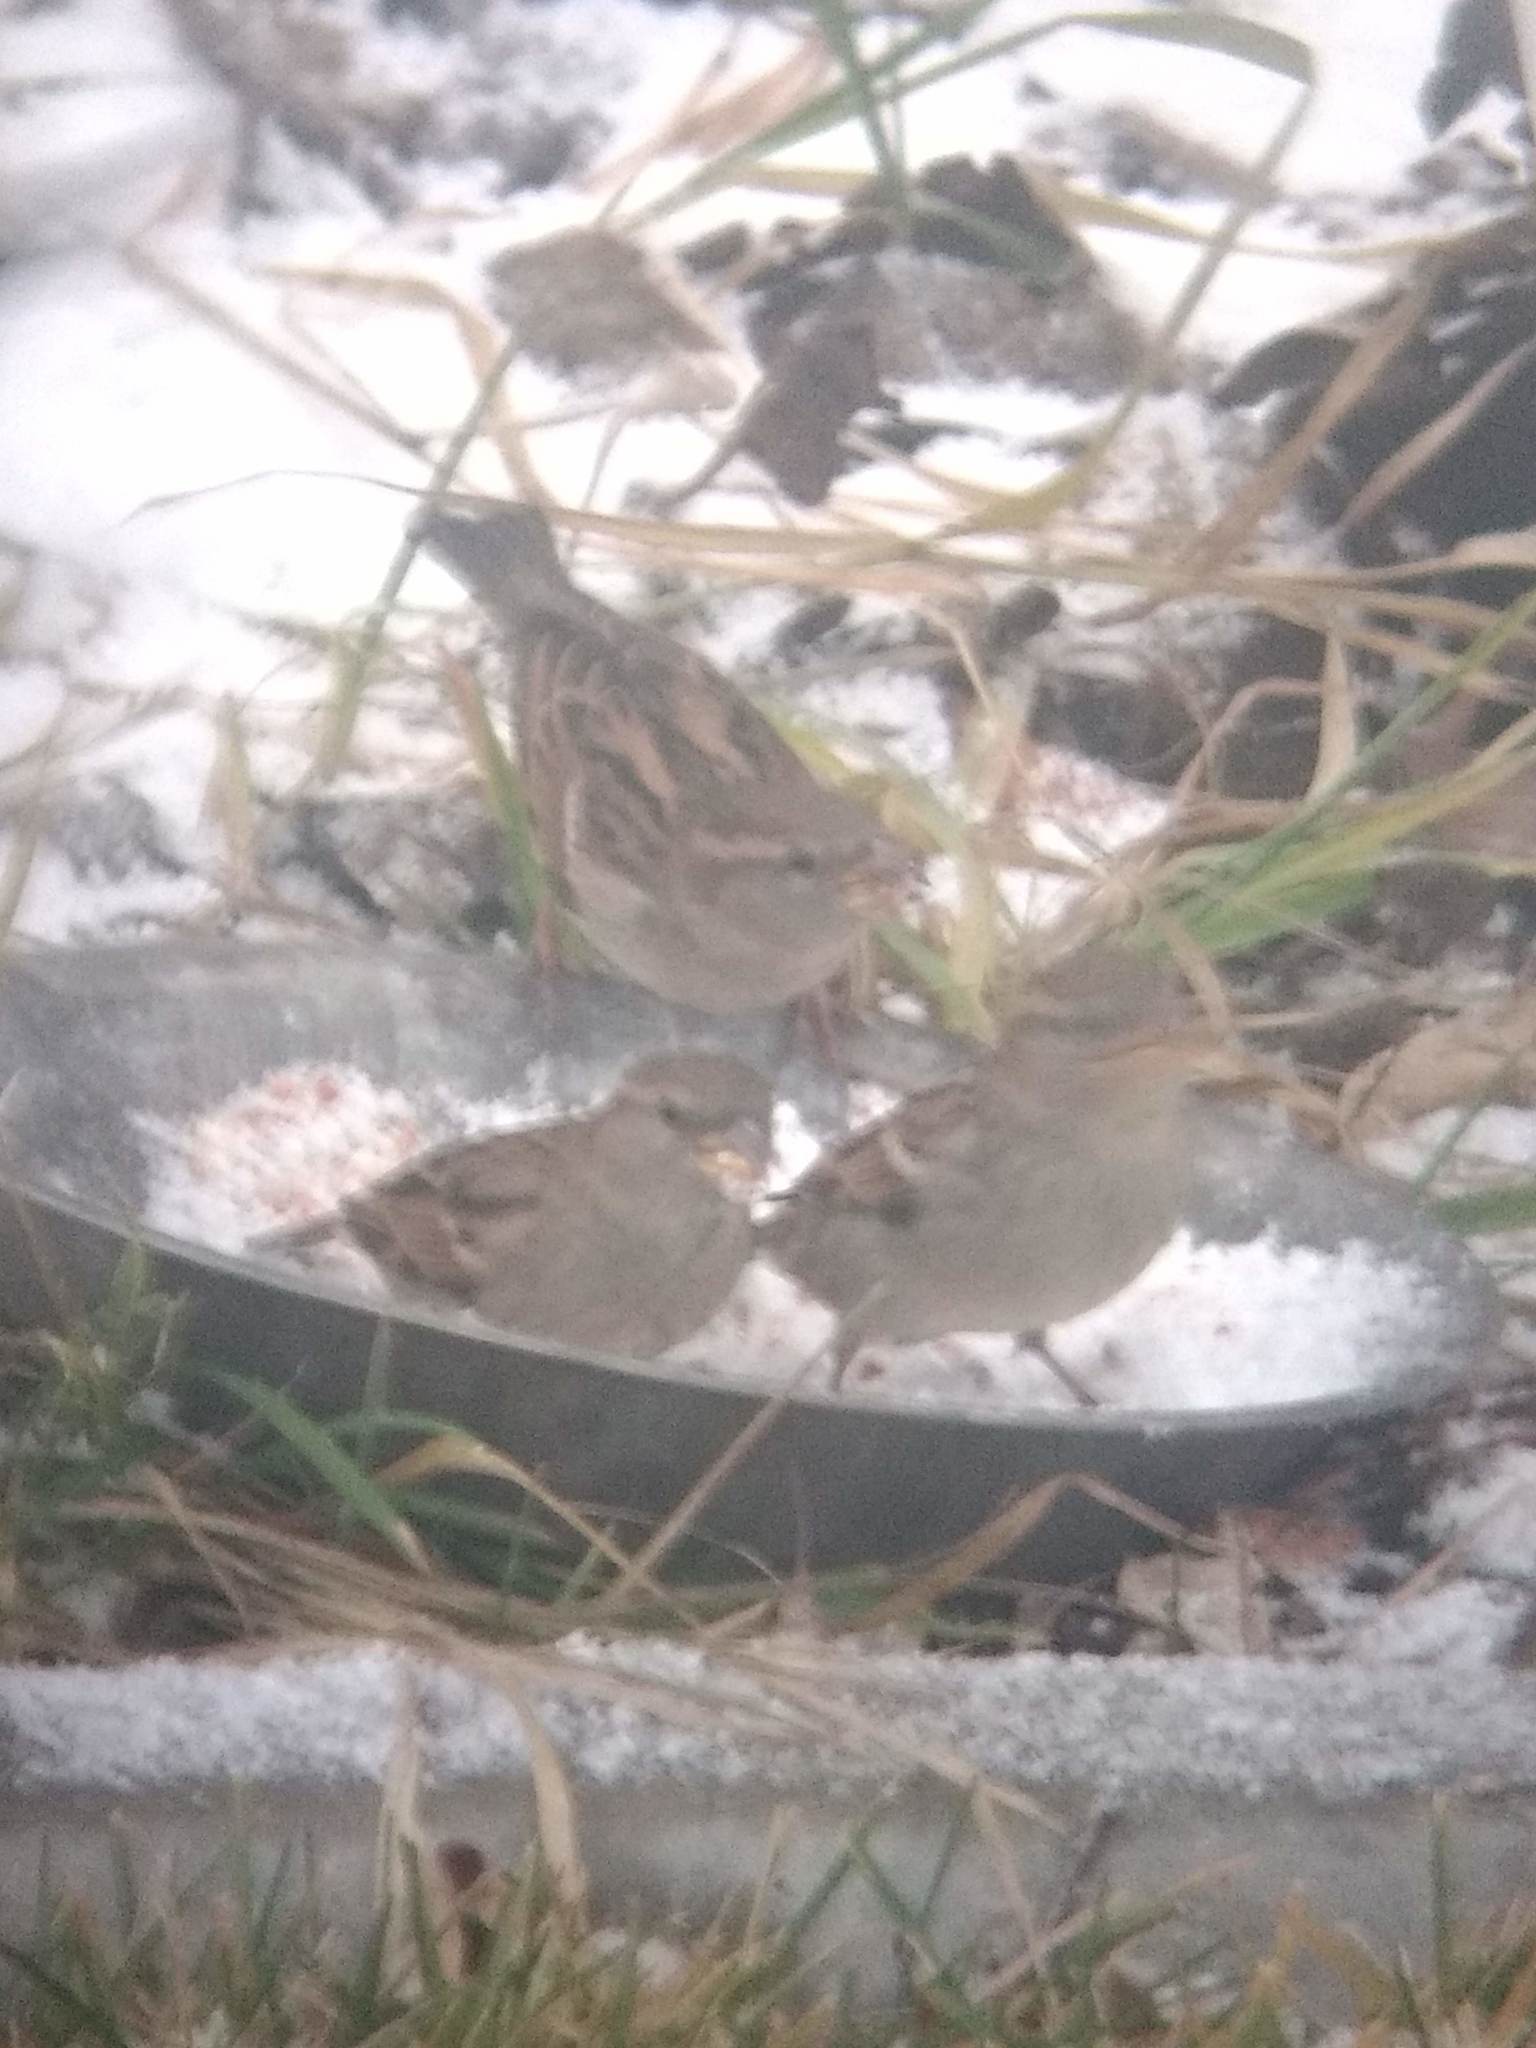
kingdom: Animalia
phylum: Chordata
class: Aves
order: Passeriformes
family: Passeridae
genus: Passer
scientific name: Passer domesticus
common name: House sparrow
